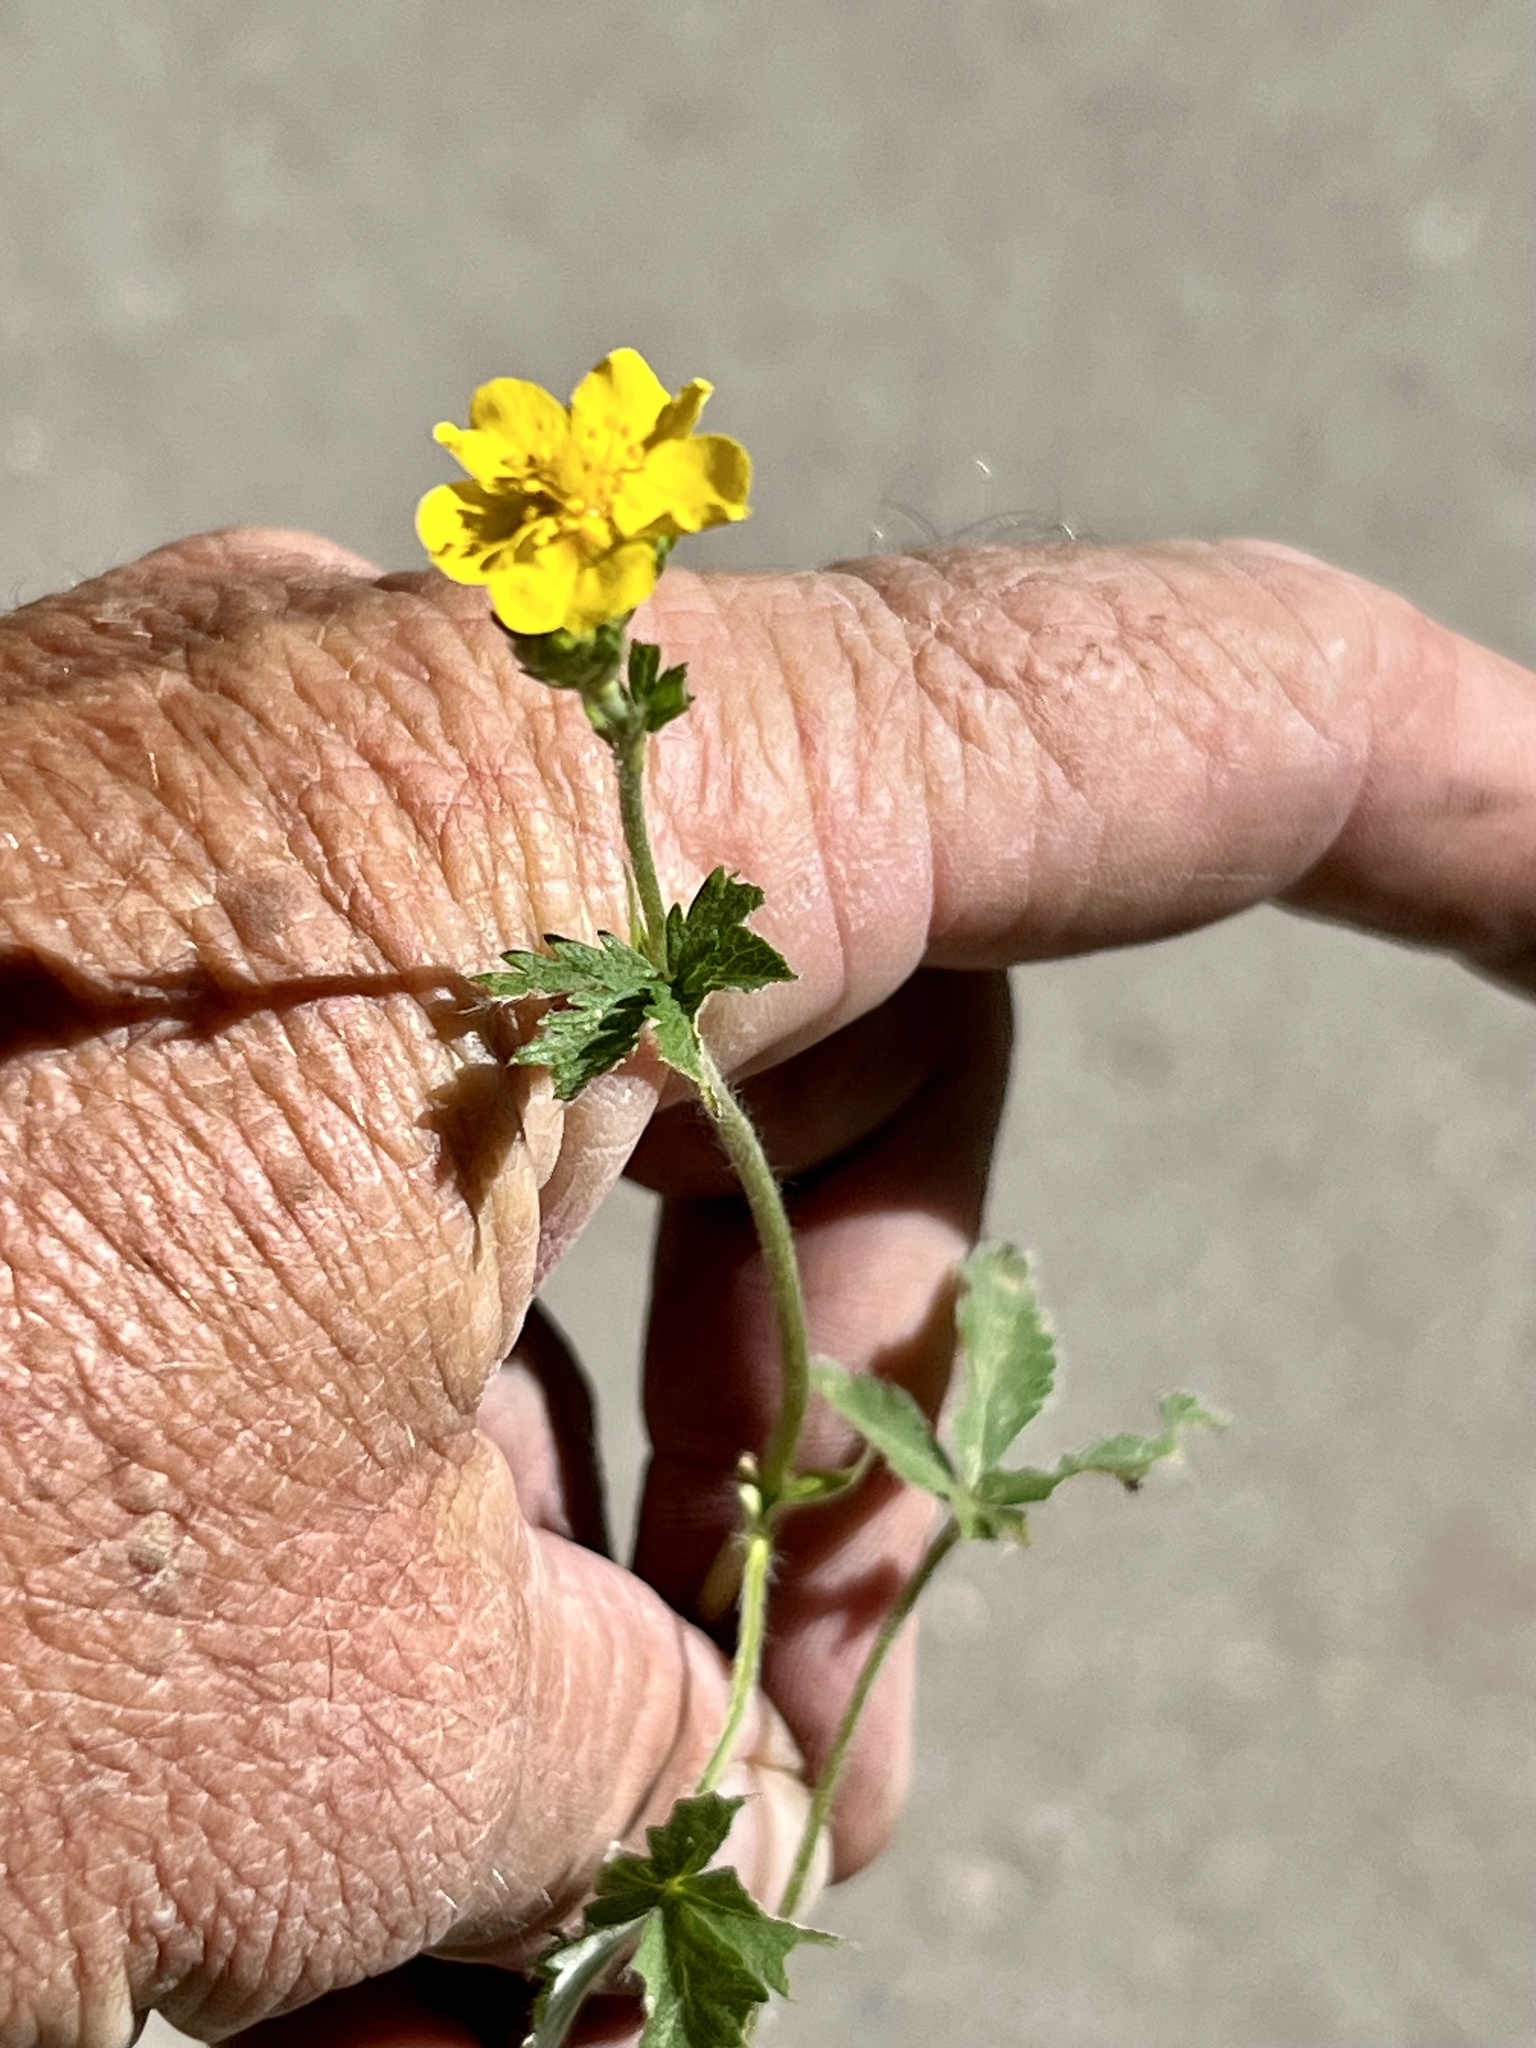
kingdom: Plantae
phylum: Tracheophyta
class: Magnoliopsida
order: Rosales
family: Rosaceae
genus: Potentilla
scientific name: Potentilla gracilis
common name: Graceful cinquefoil
